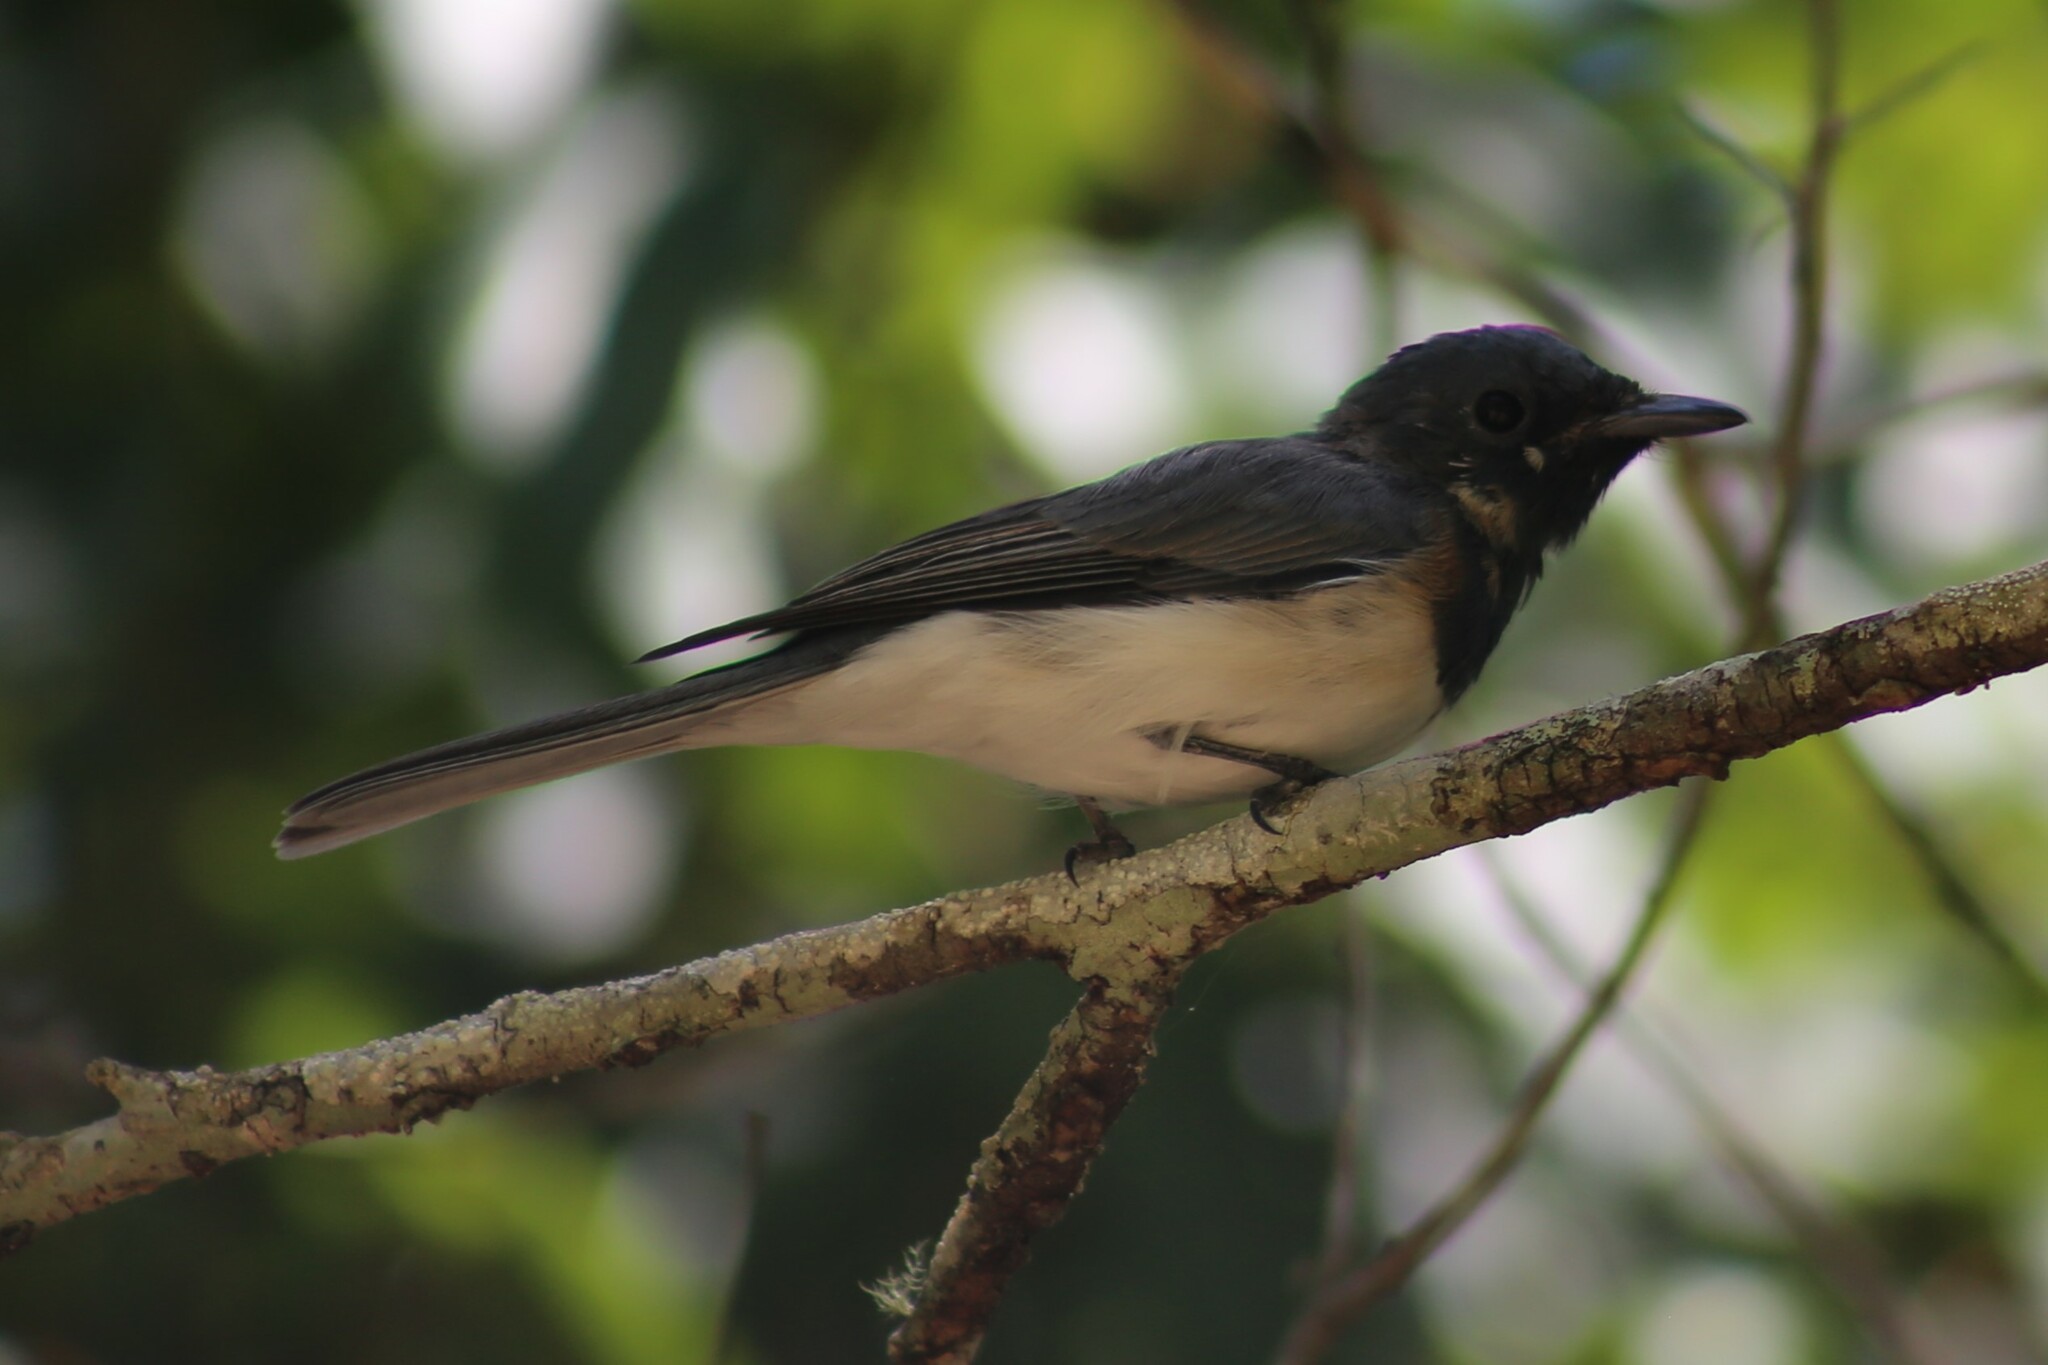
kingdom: Animalia
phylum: Chordata
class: Aves
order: Passeriformes
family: Monarchidae
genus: Myiagra
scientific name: Myiagra rubecula
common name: Leaden flycatcher
